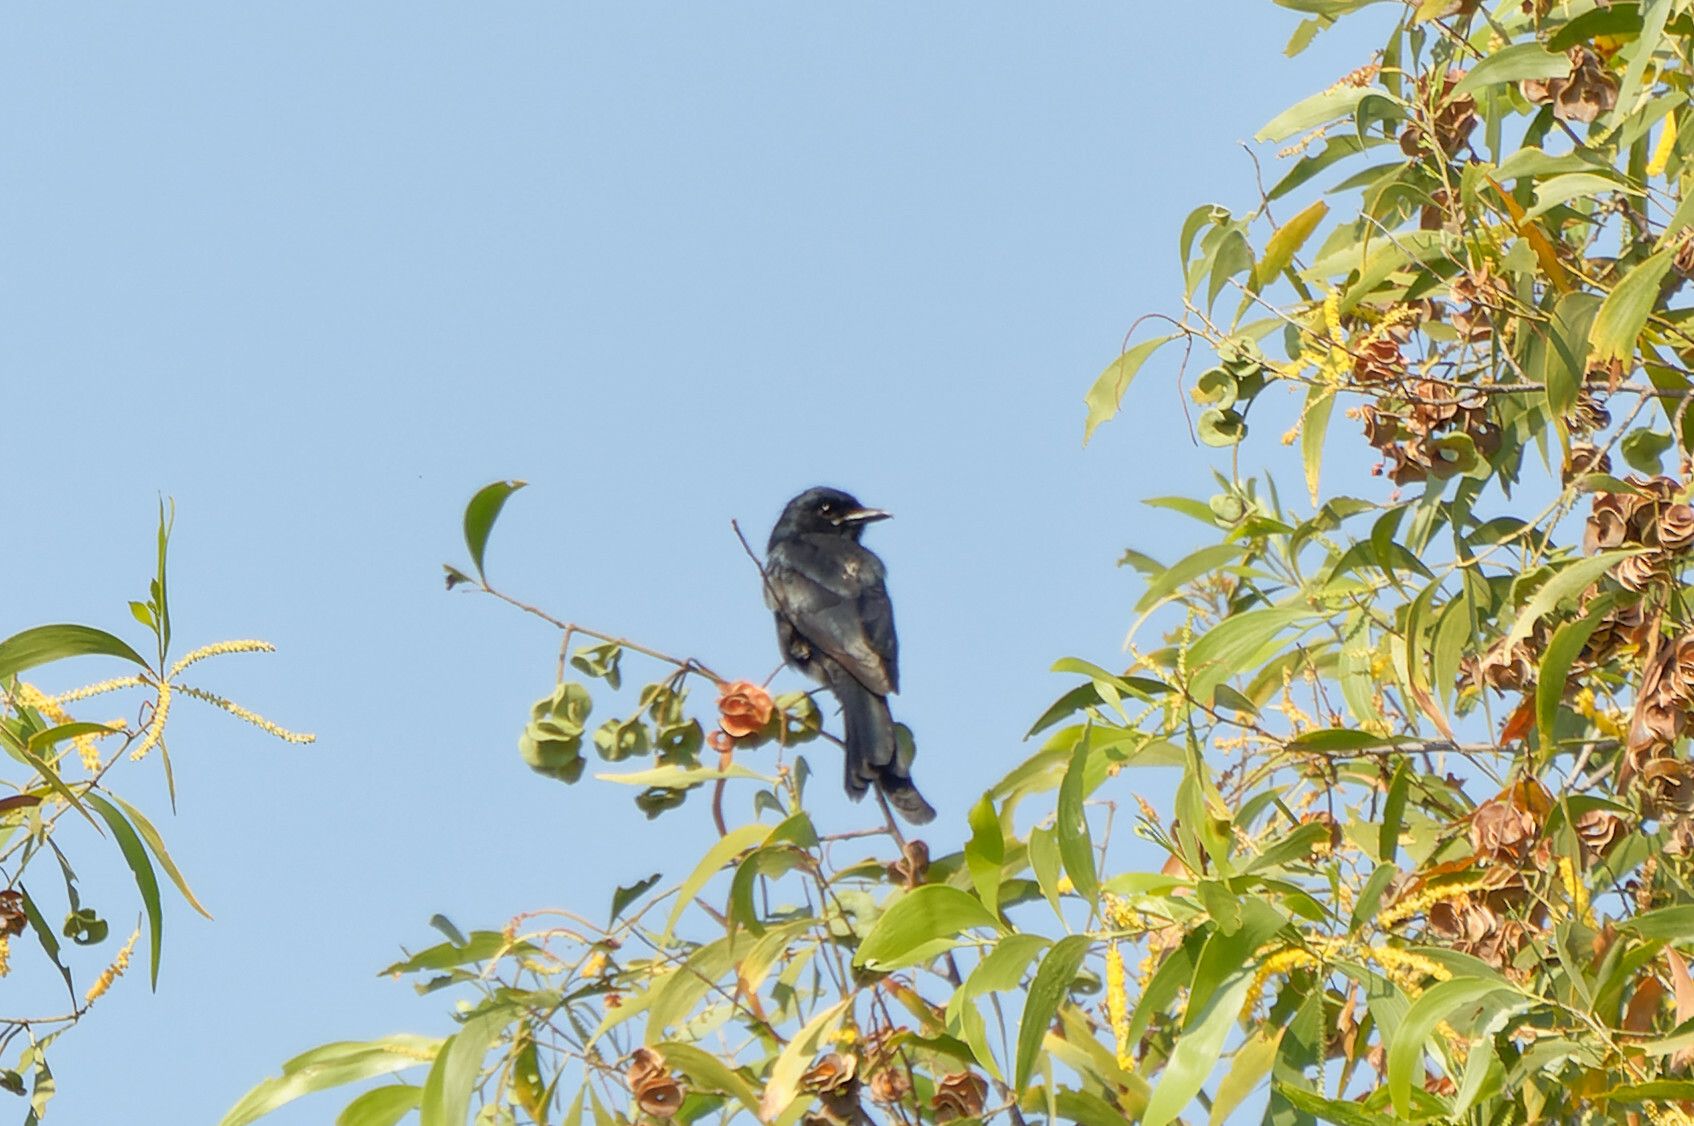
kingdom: Animalia
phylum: Chordata
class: Aves
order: Passeriformes
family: Dicruridae
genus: Dicrurus
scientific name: Dicrurus macrocercus
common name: Black drongo
